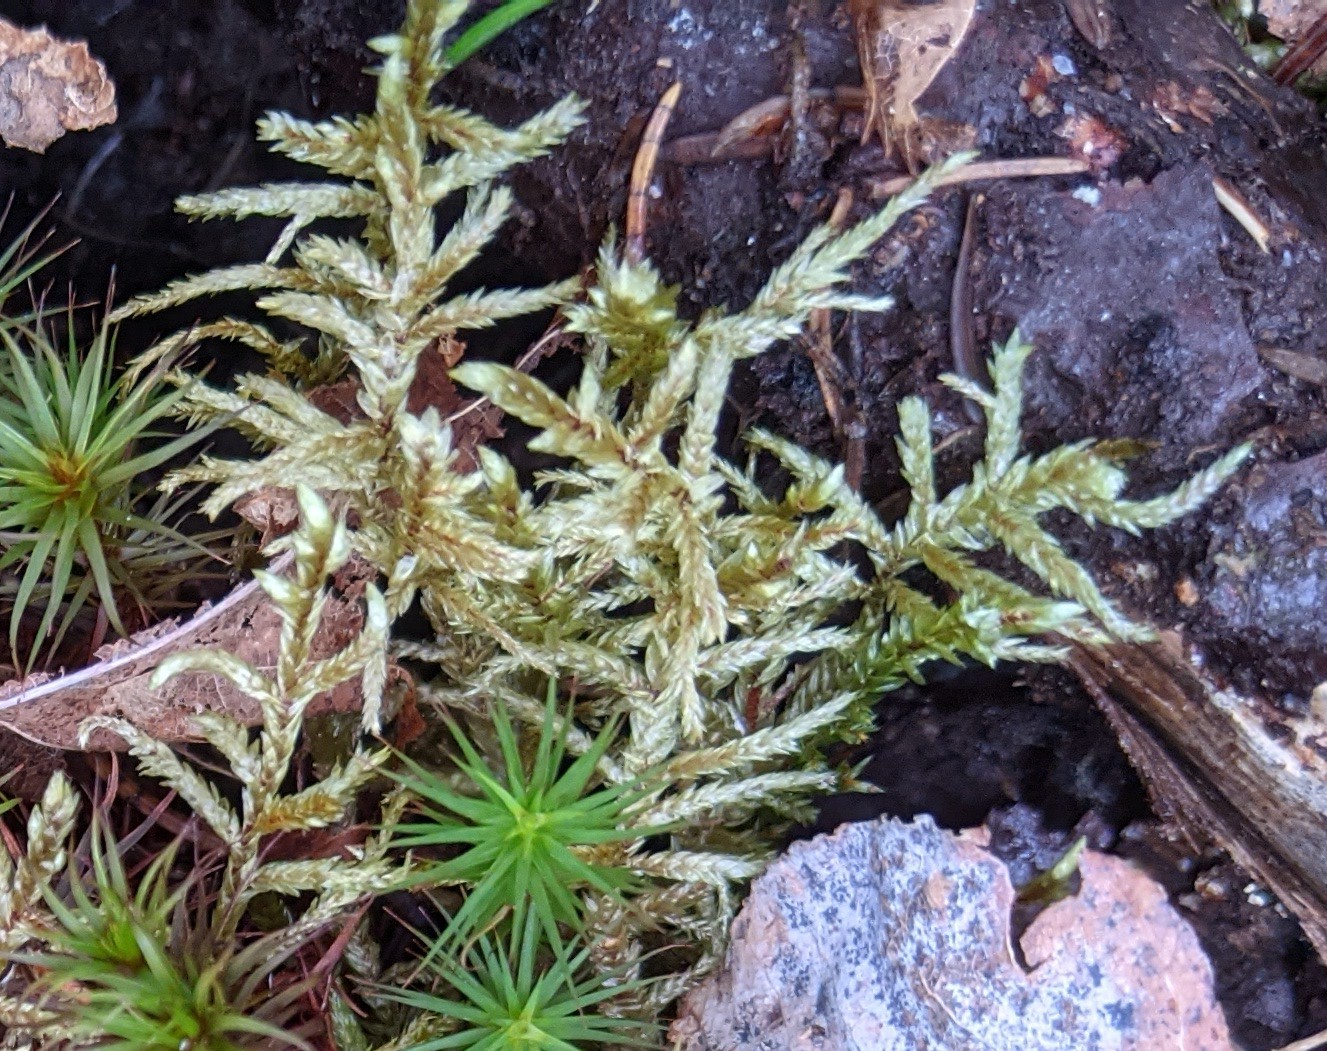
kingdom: Plantae
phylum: Bryophyta
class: Bryopsida
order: Hypnales
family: Hylocomiaceae
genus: Pleurozium
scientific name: Pleurozium schreberi
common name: Red-stemmed feather moss
